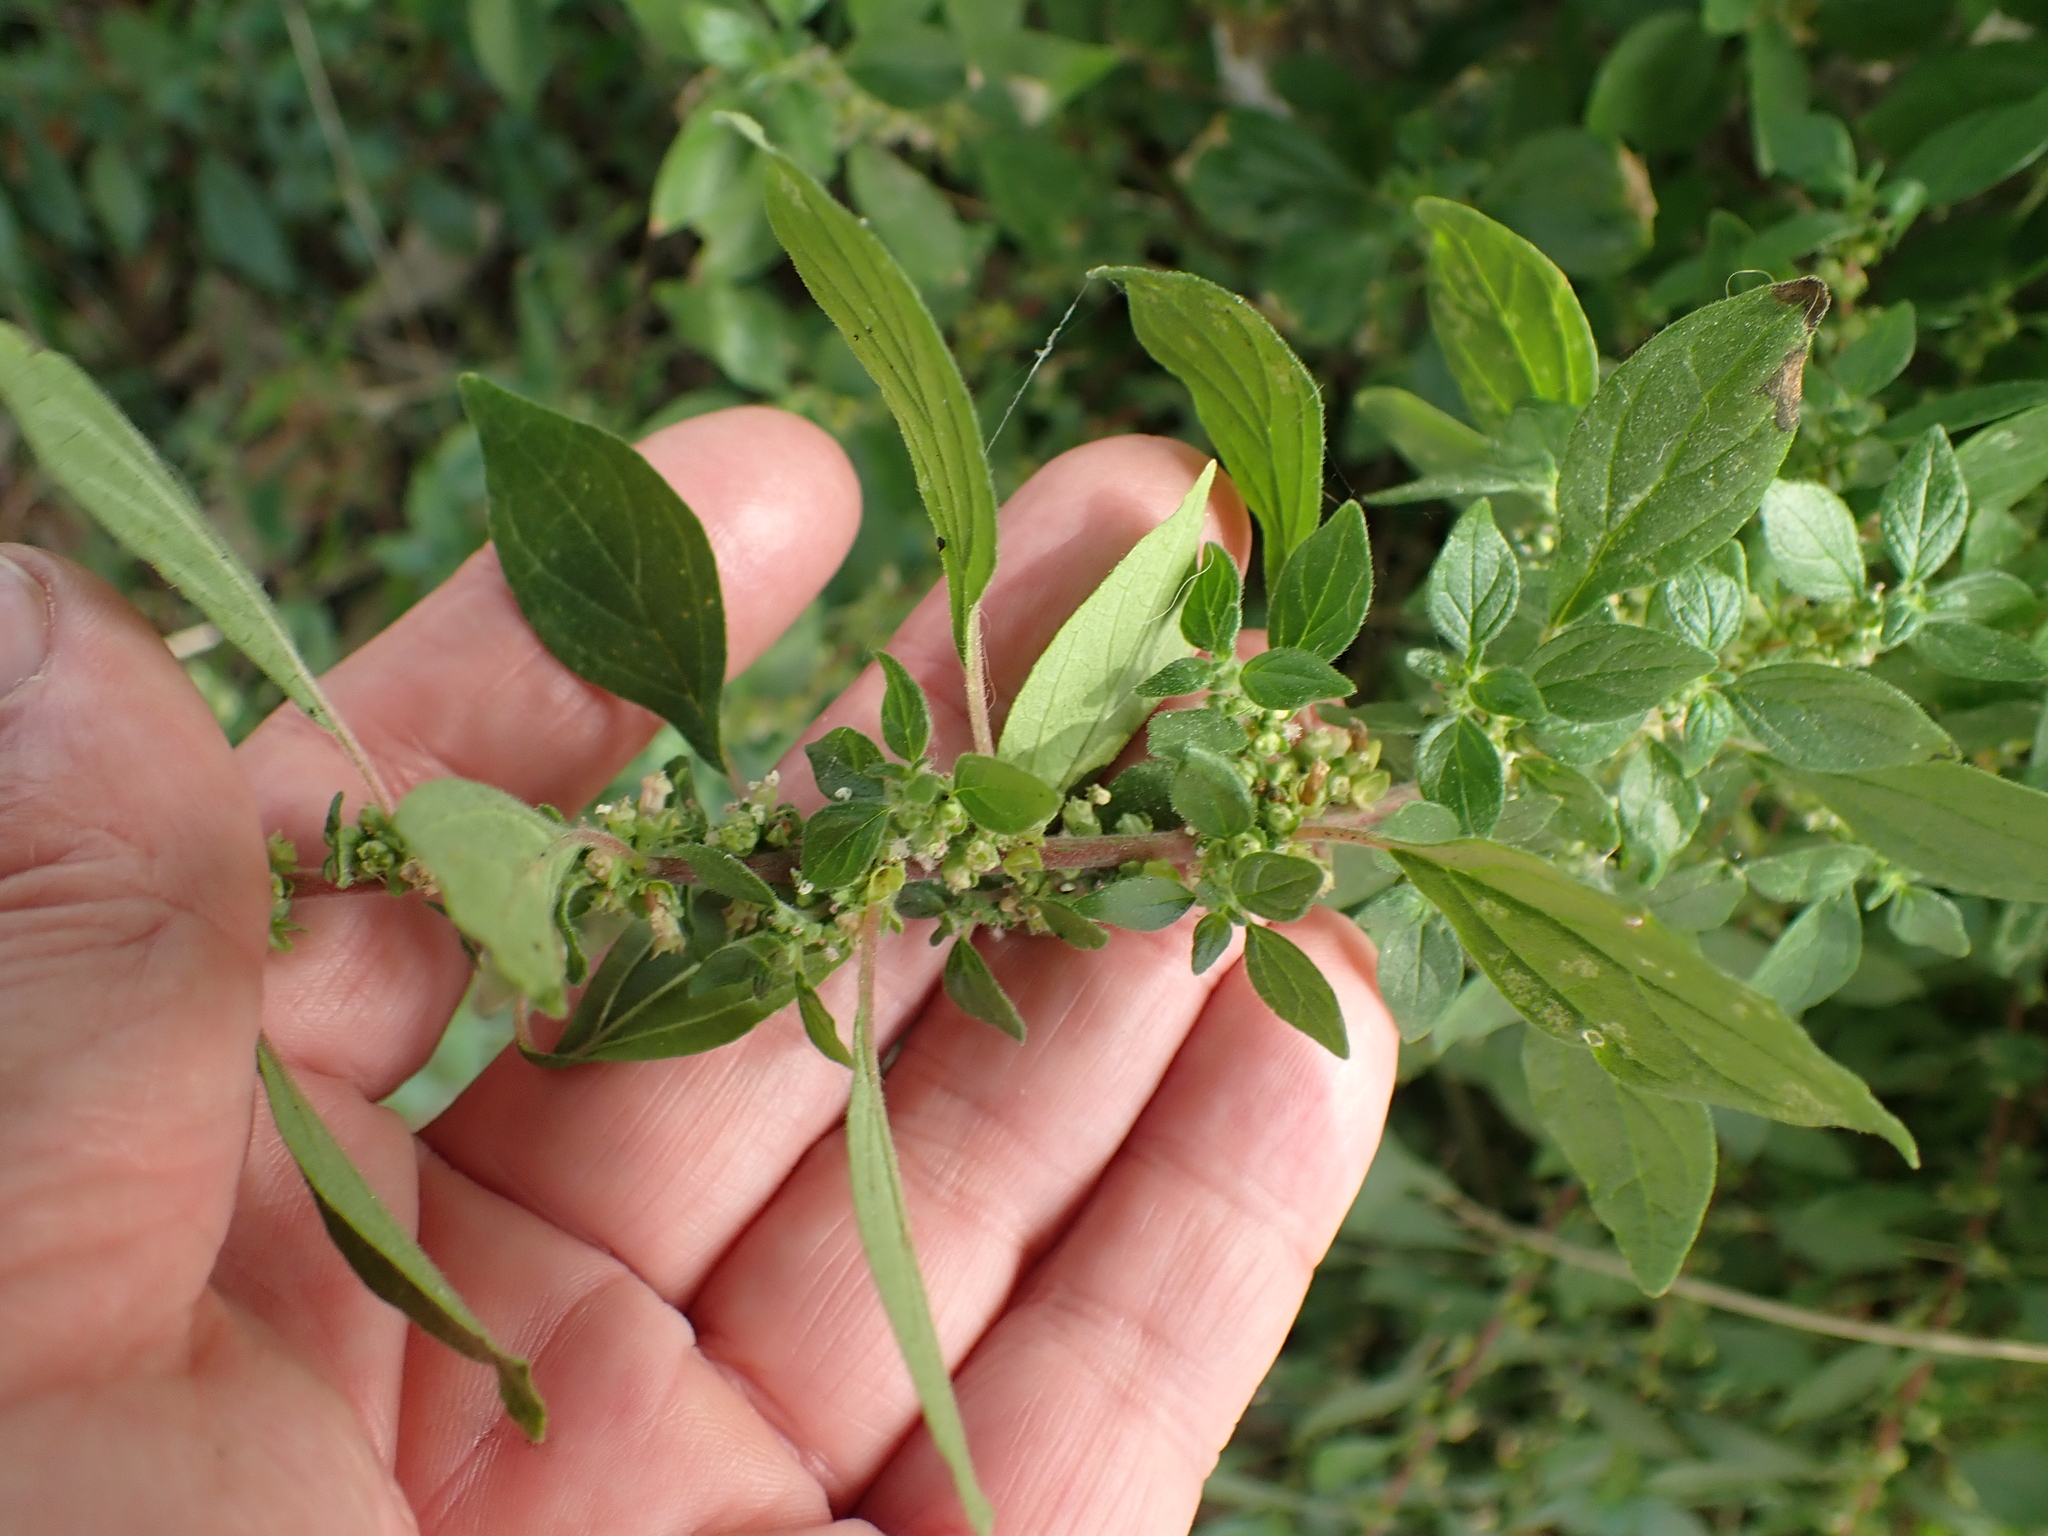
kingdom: Plantae
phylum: Tracheophyta
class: Magnoliopsida
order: Rosales
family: Urticaceae
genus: Parietaria
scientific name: Parietaria judaica
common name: Pellitory-of-the-wall
